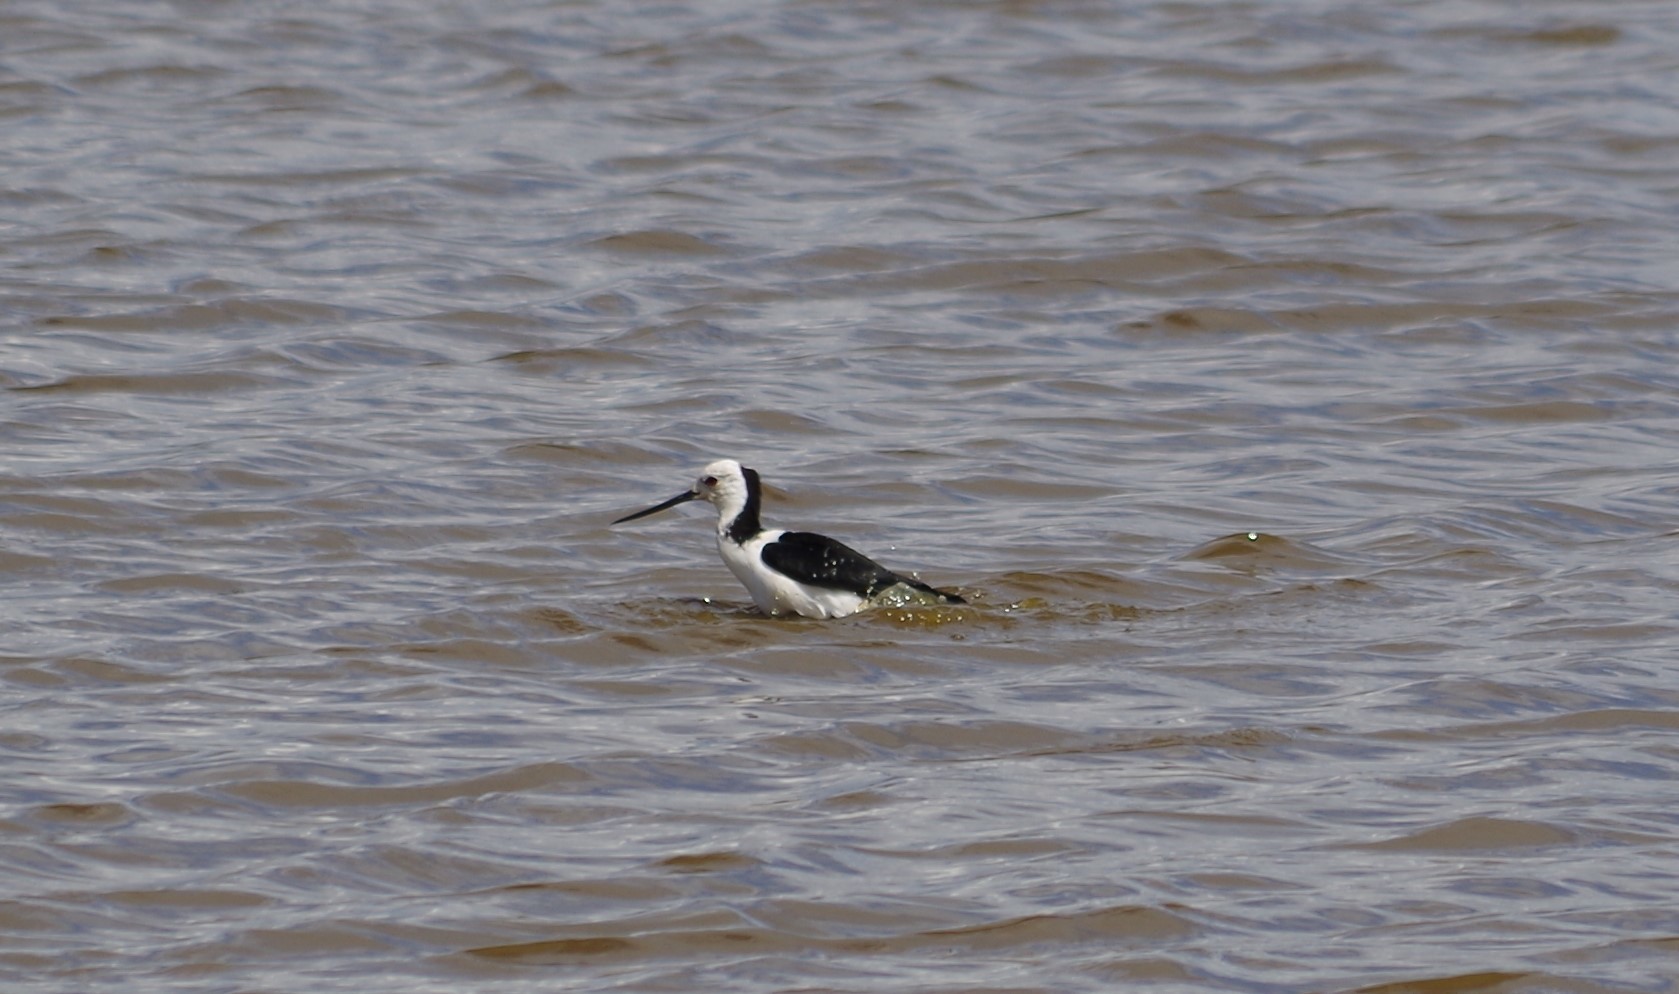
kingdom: Animalia
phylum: Chordata
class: Aves
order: Charadriiformes
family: Recurvirostridae
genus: Himantopus
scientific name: Himantopus leucocephalus
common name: White-headed stilt
